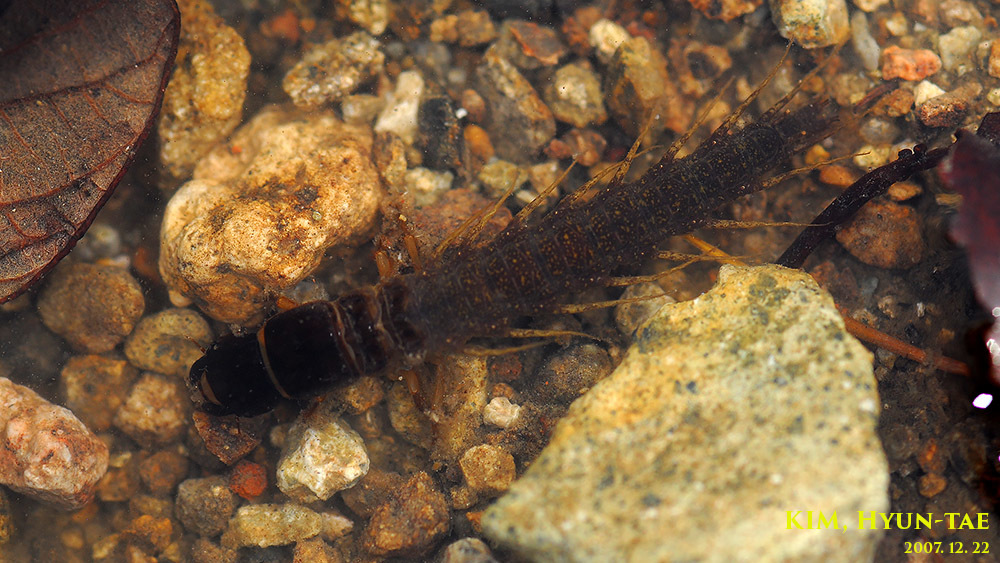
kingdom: Animalia
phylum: Arthropoda
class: Insecta
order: Megaloptera
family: Corydalidae
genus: Parachauliodes
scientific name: Parachauliodes asahinai
